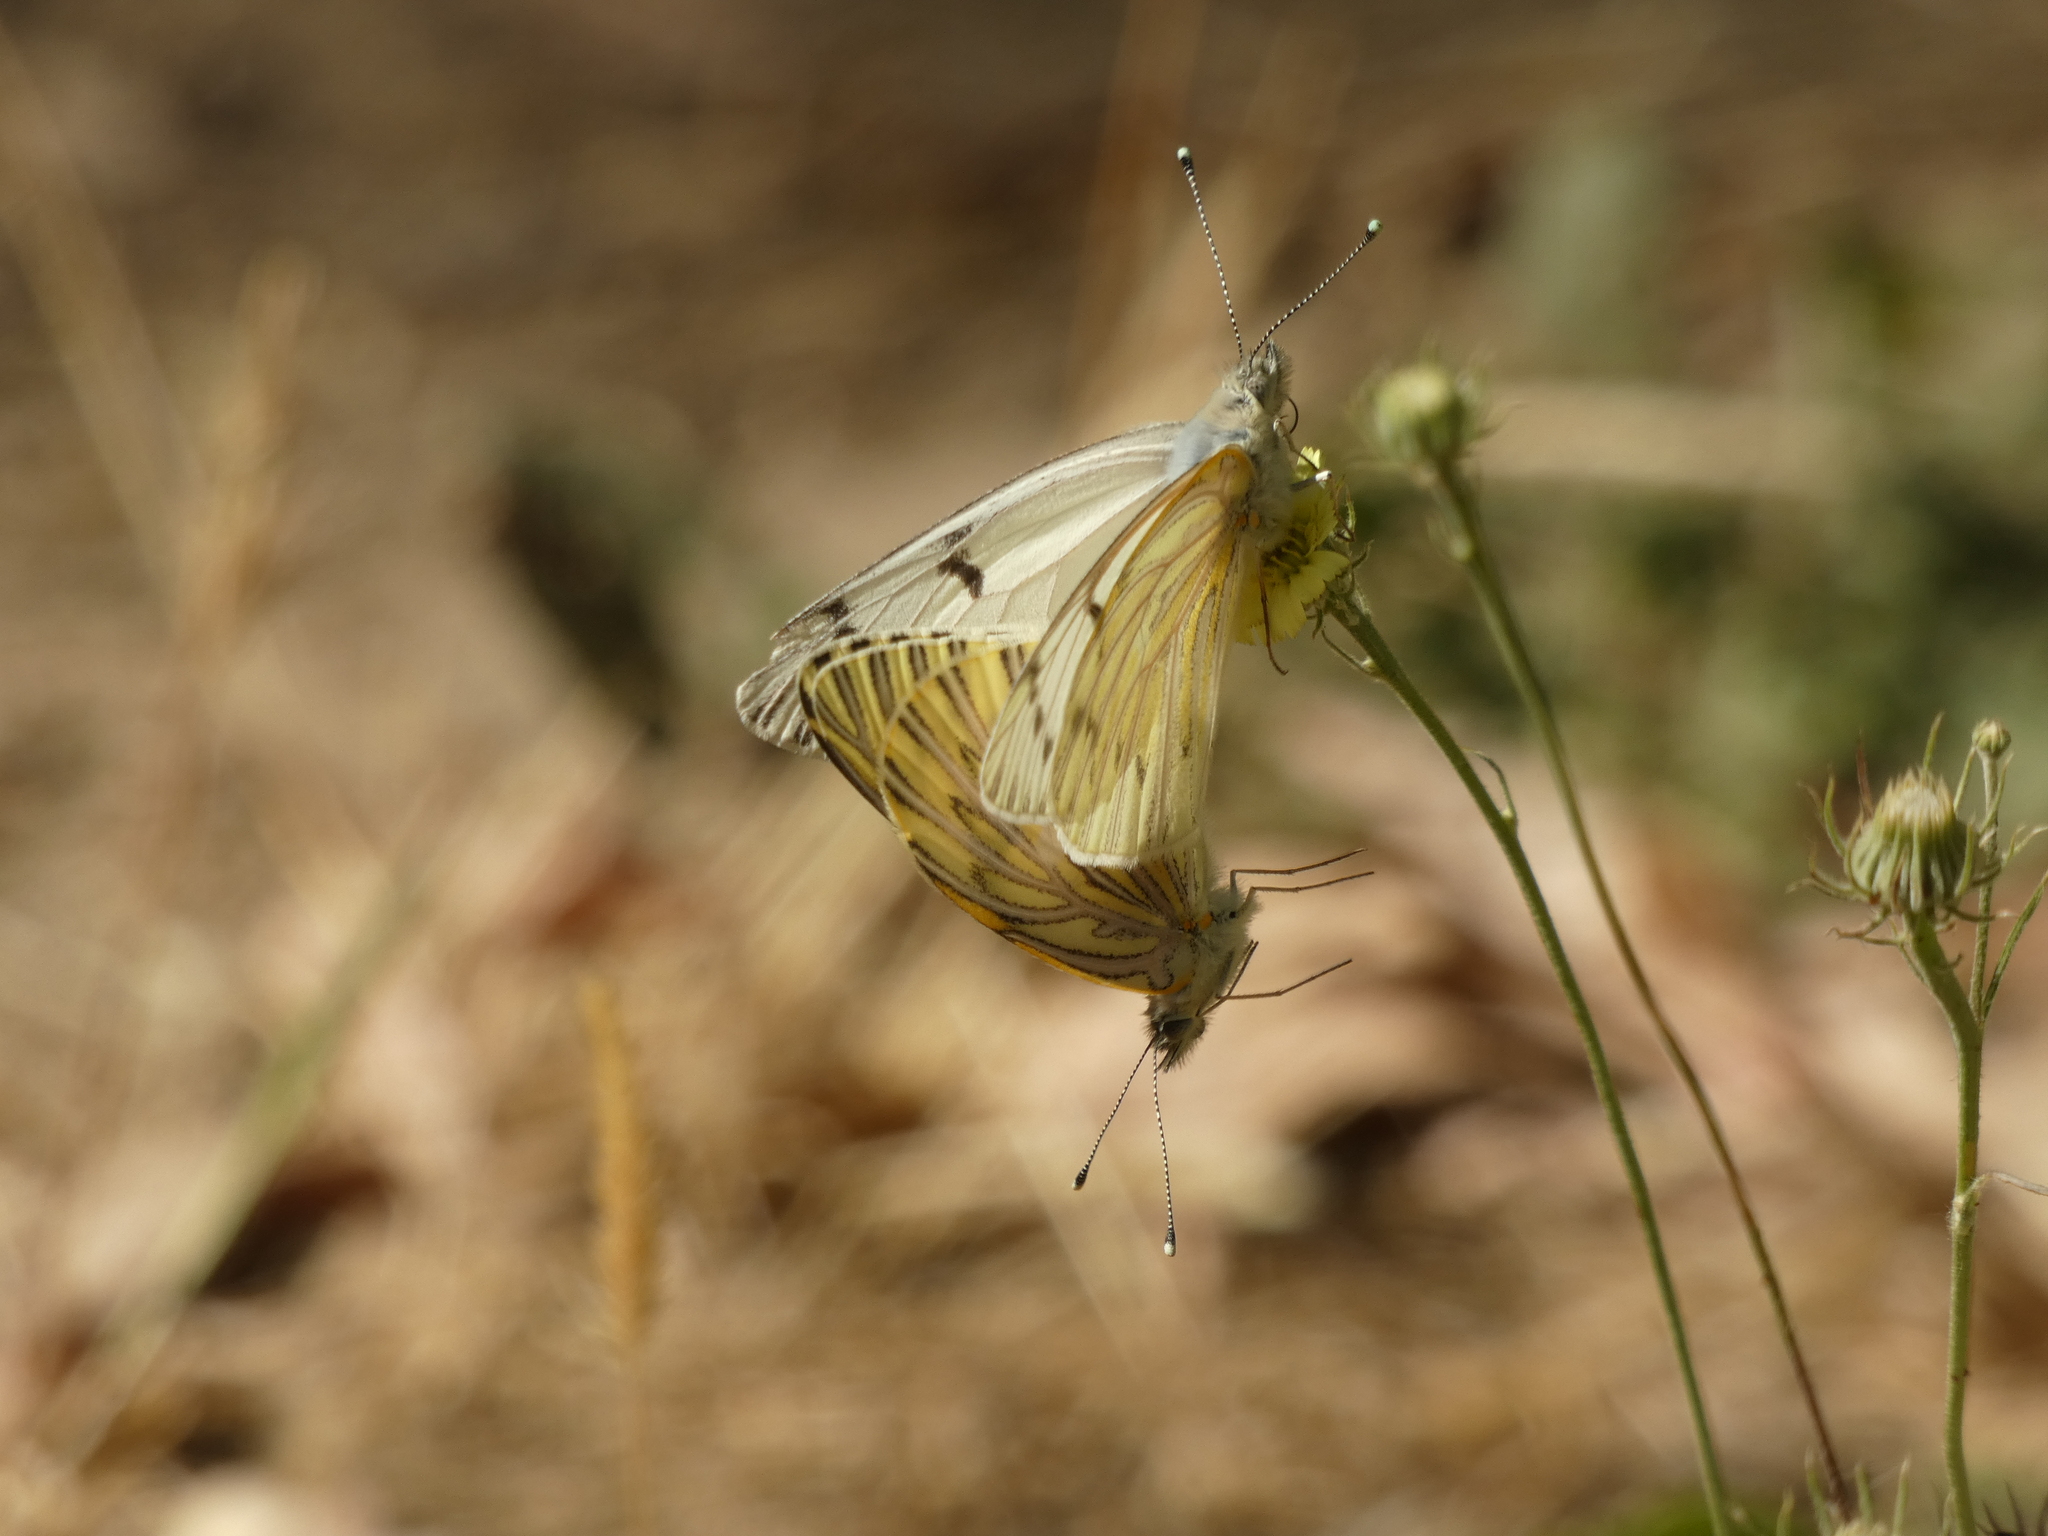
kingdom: Animalia
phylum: Arthropoda
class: Insecta
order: Lepidoptera
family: Pieridae
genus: Tatochila
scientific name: Tatochila mercedis
